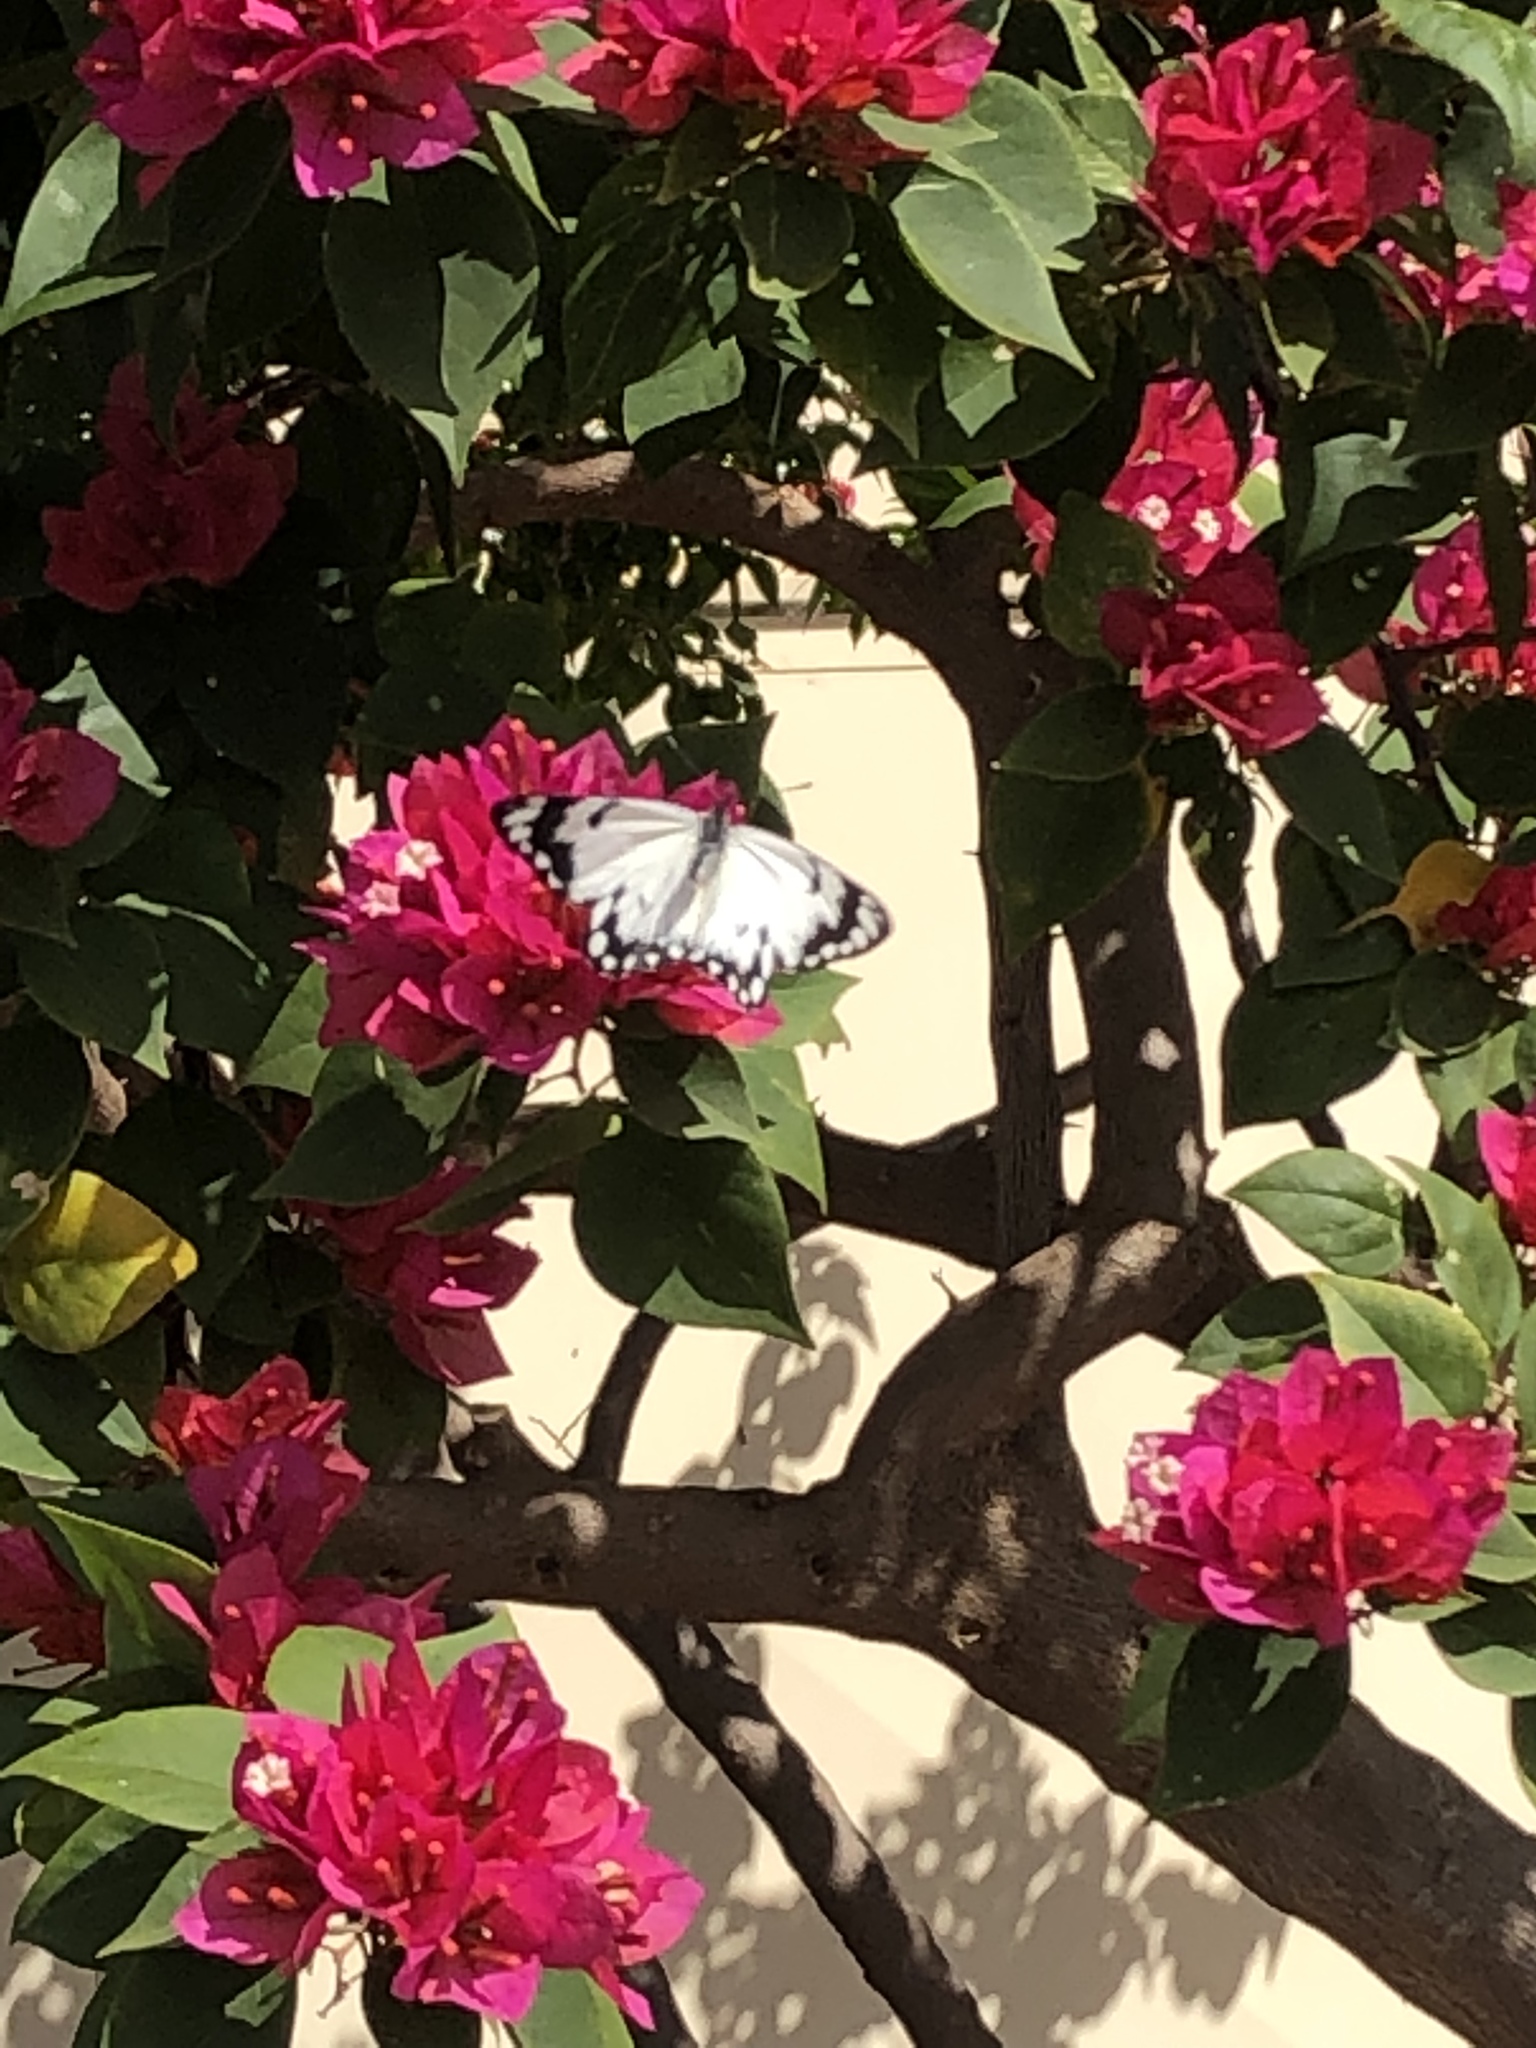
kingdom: Animalia
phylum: Arthropoda
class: Insecta
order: Lepidoptera
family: Pieridae
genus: Belenois
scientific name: Belenois java
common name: Caper white
